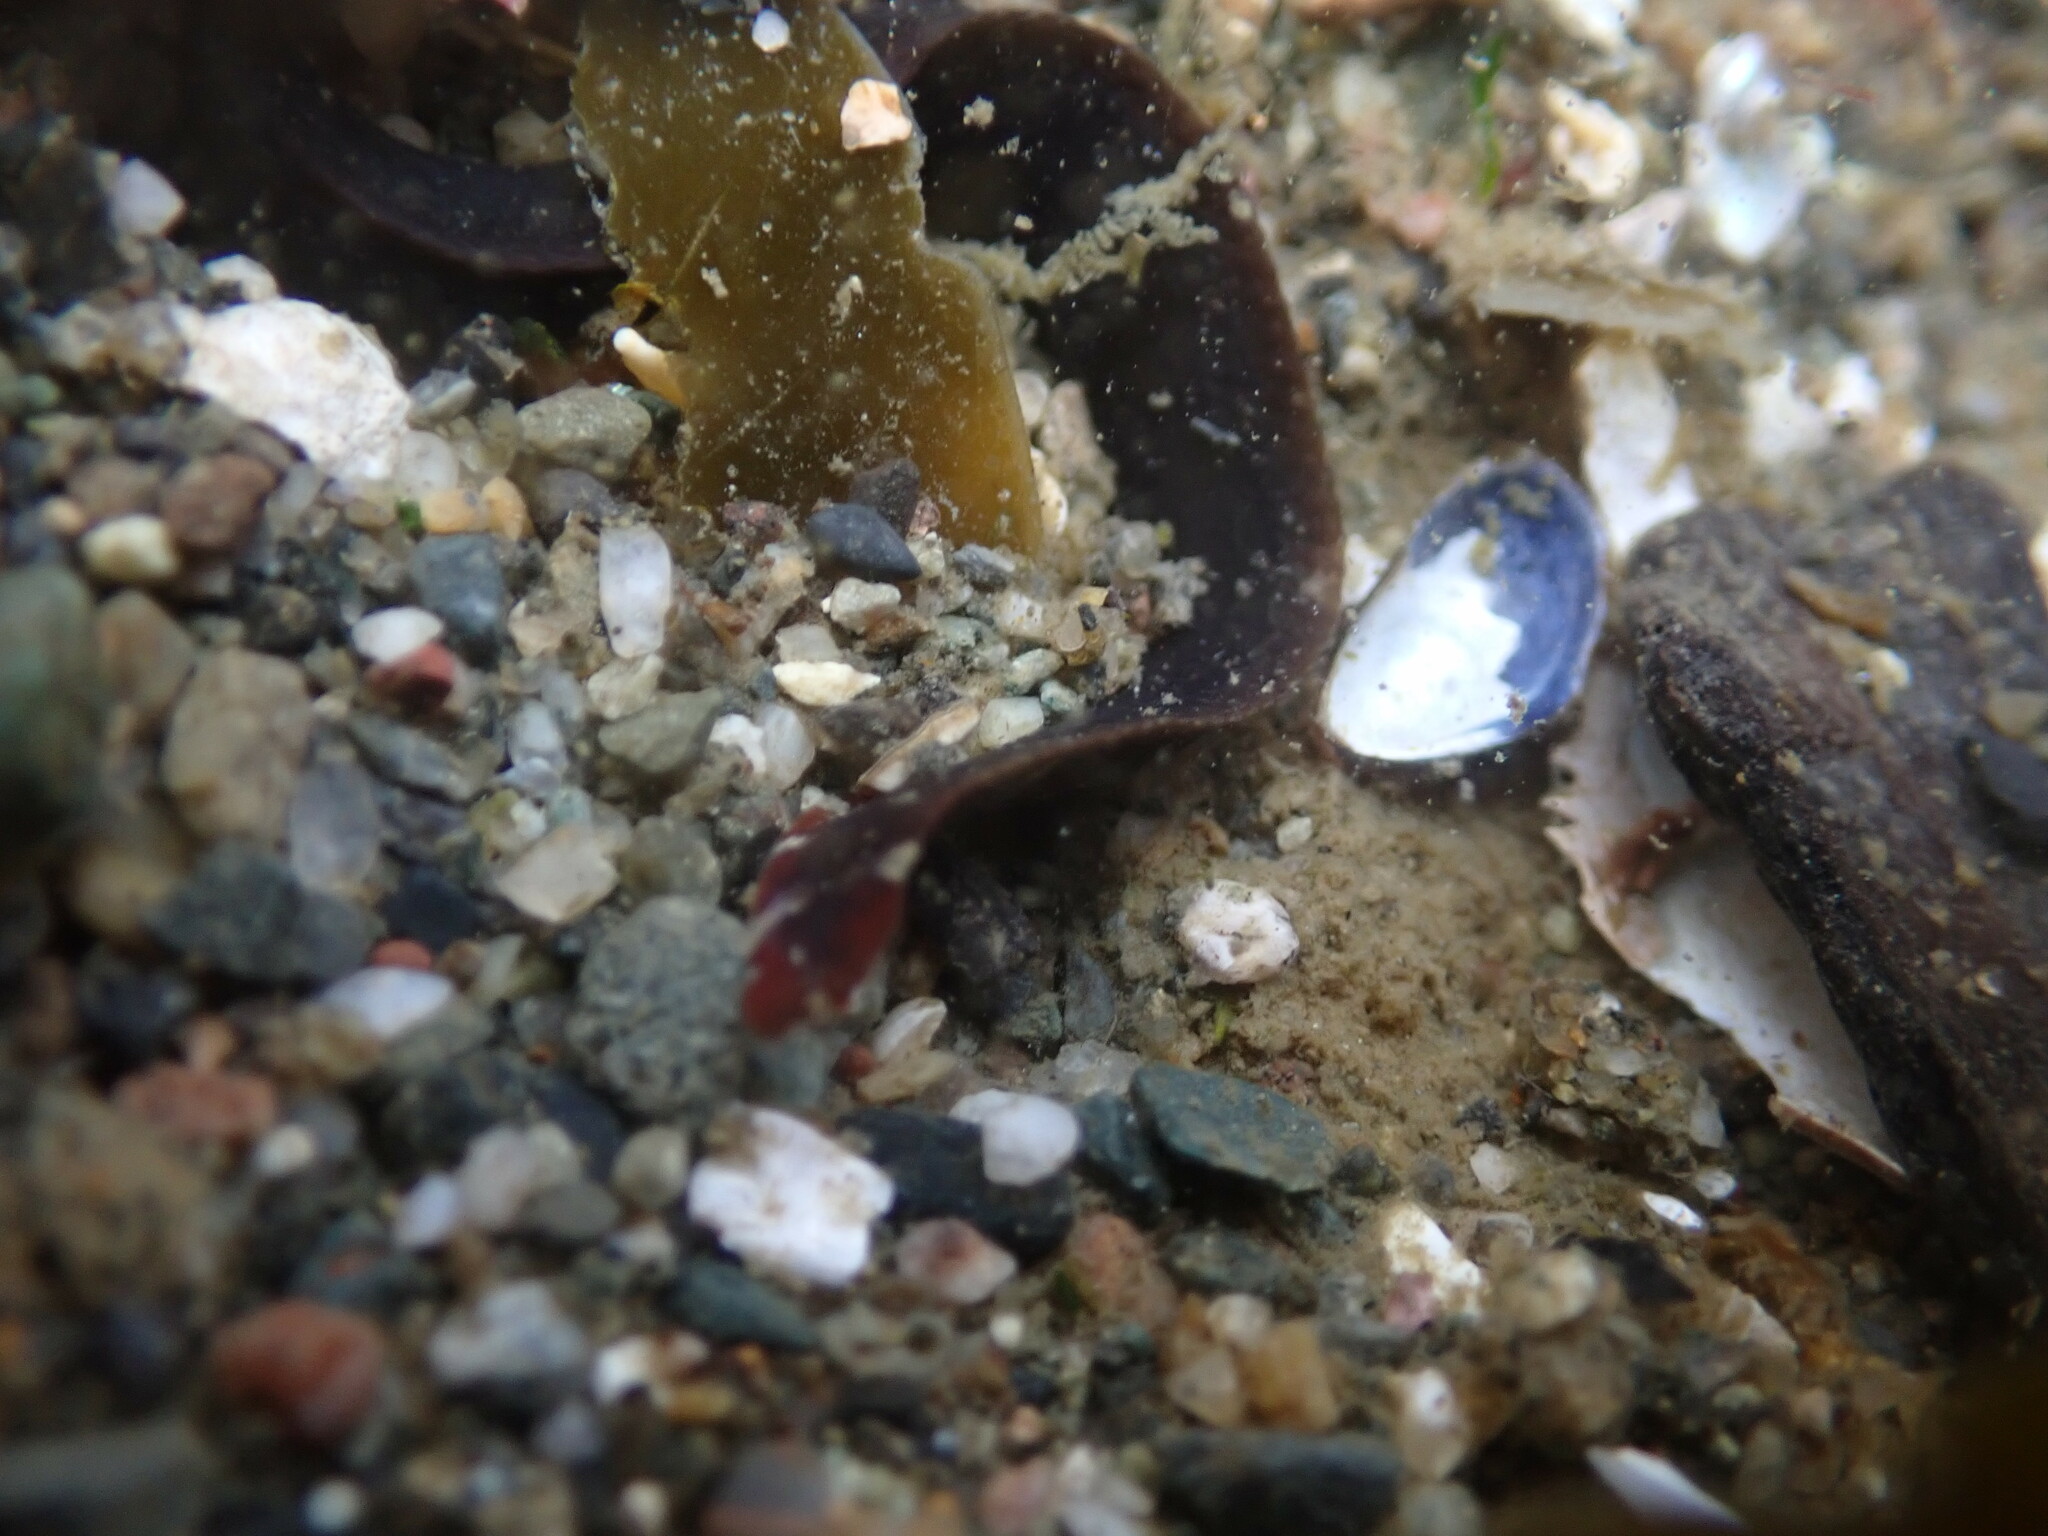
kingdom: Animalia
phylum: Chordata
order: Perciformes
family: Stichaeidae
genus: Xiphister
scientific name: Xiphister atropurpureus
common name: Black prickleback
